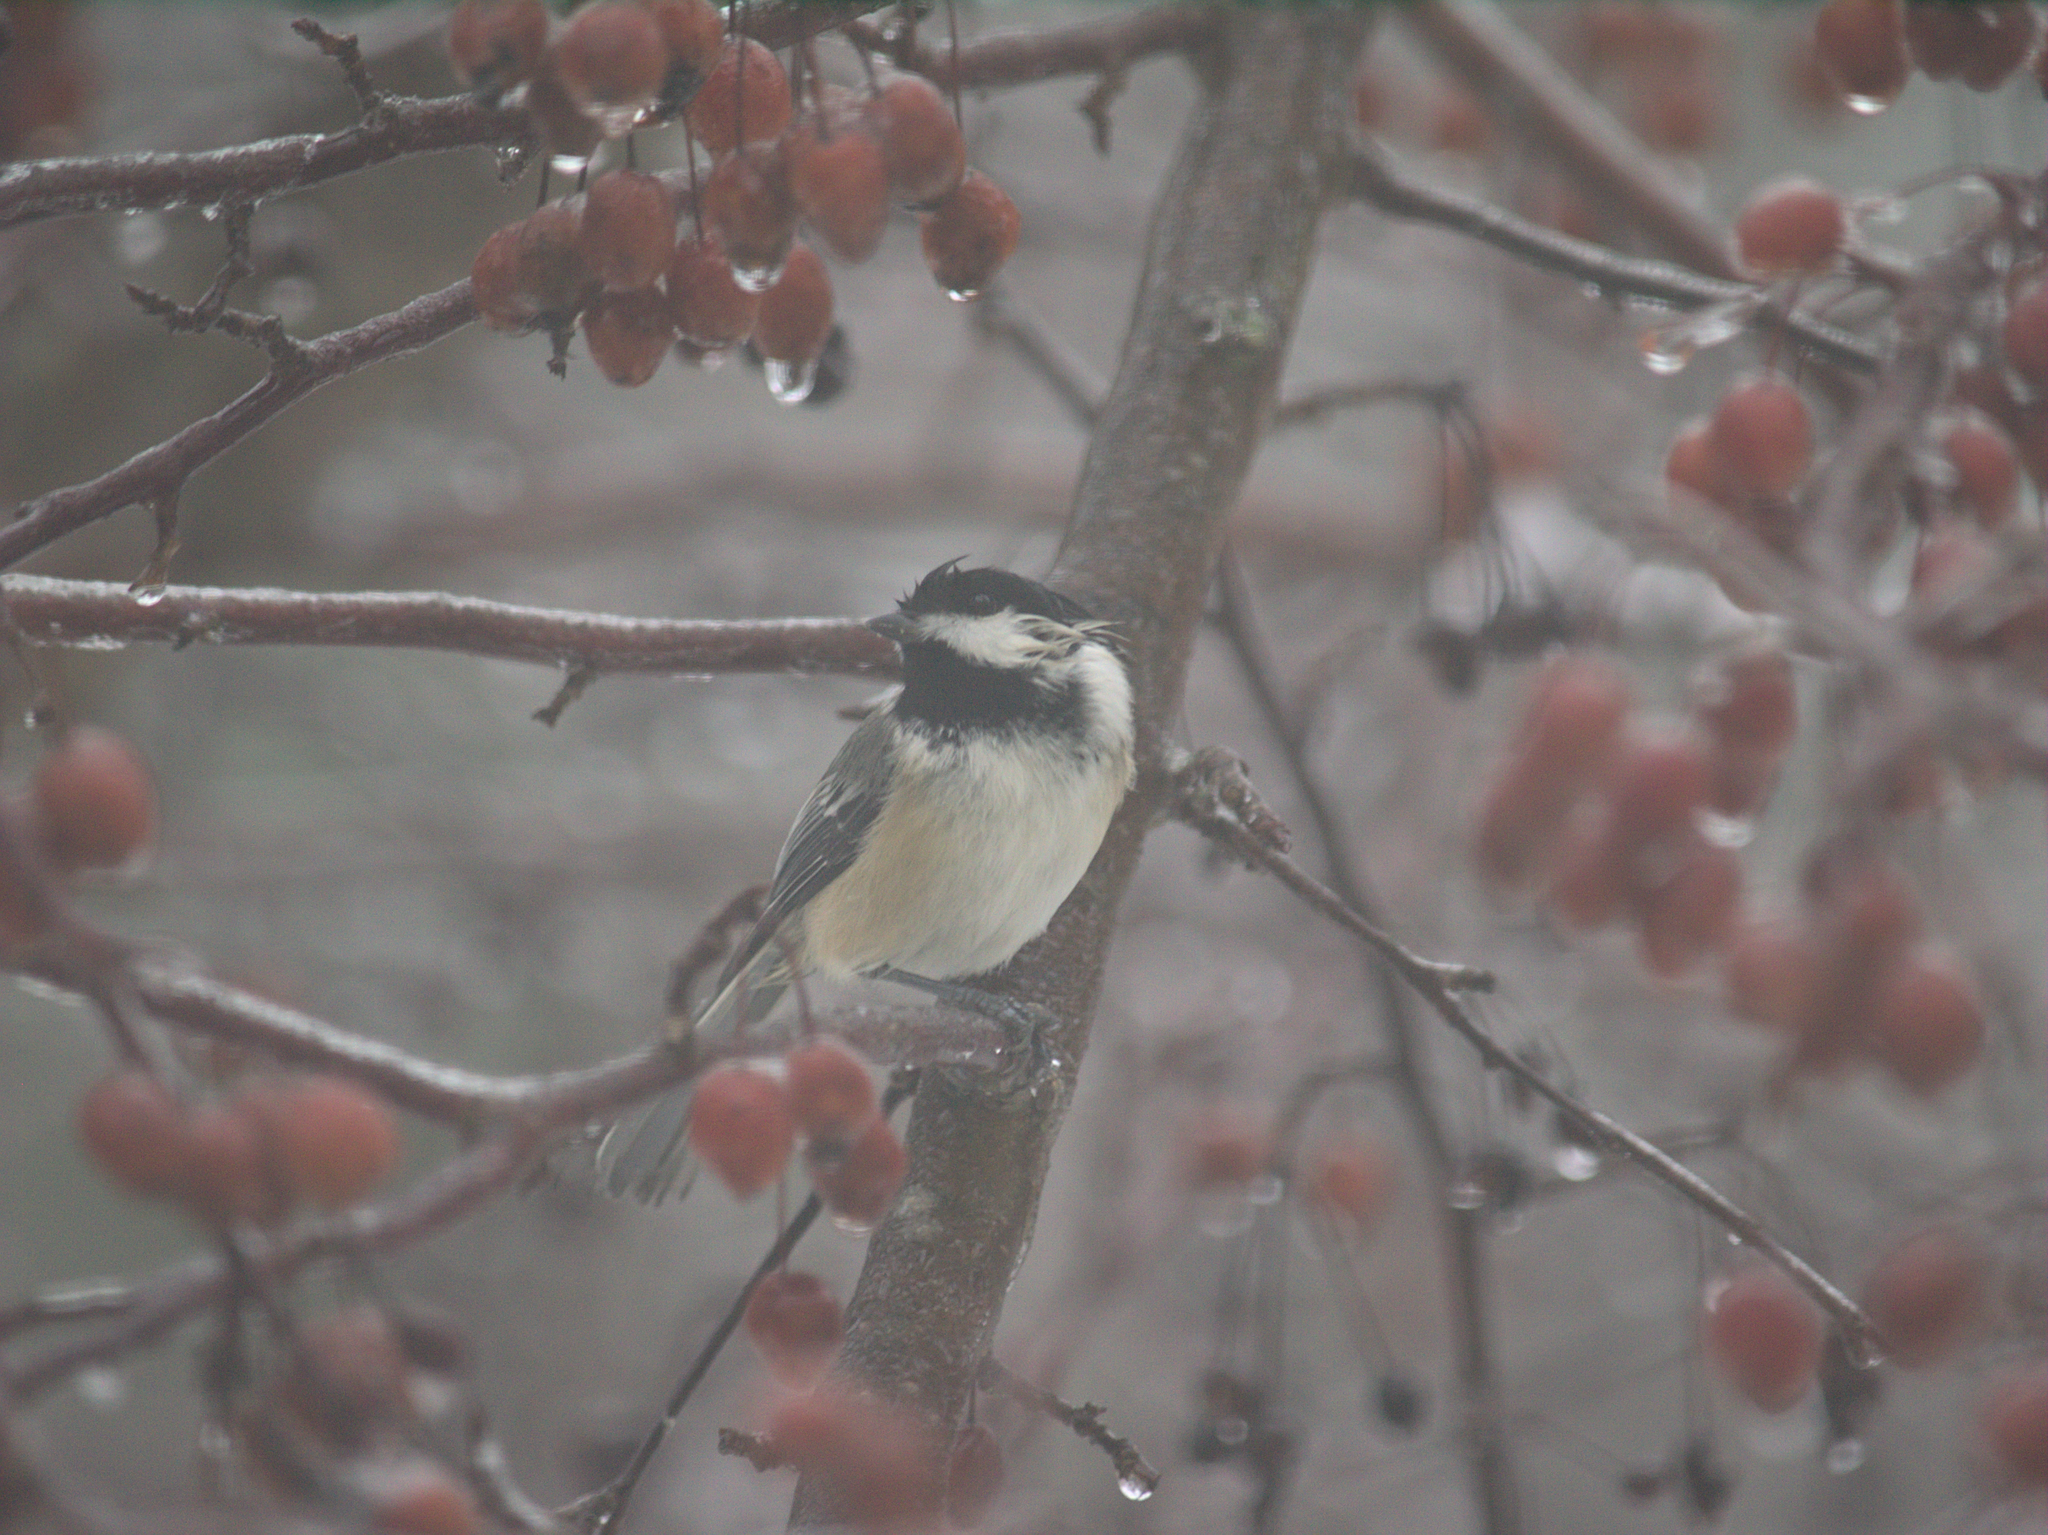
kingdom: Animalia
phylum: Chordata
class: Aves
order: Passeriformes
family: Paridae
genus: Poecile
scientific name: Poecile atricapillus
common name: Black-capped chickadee
